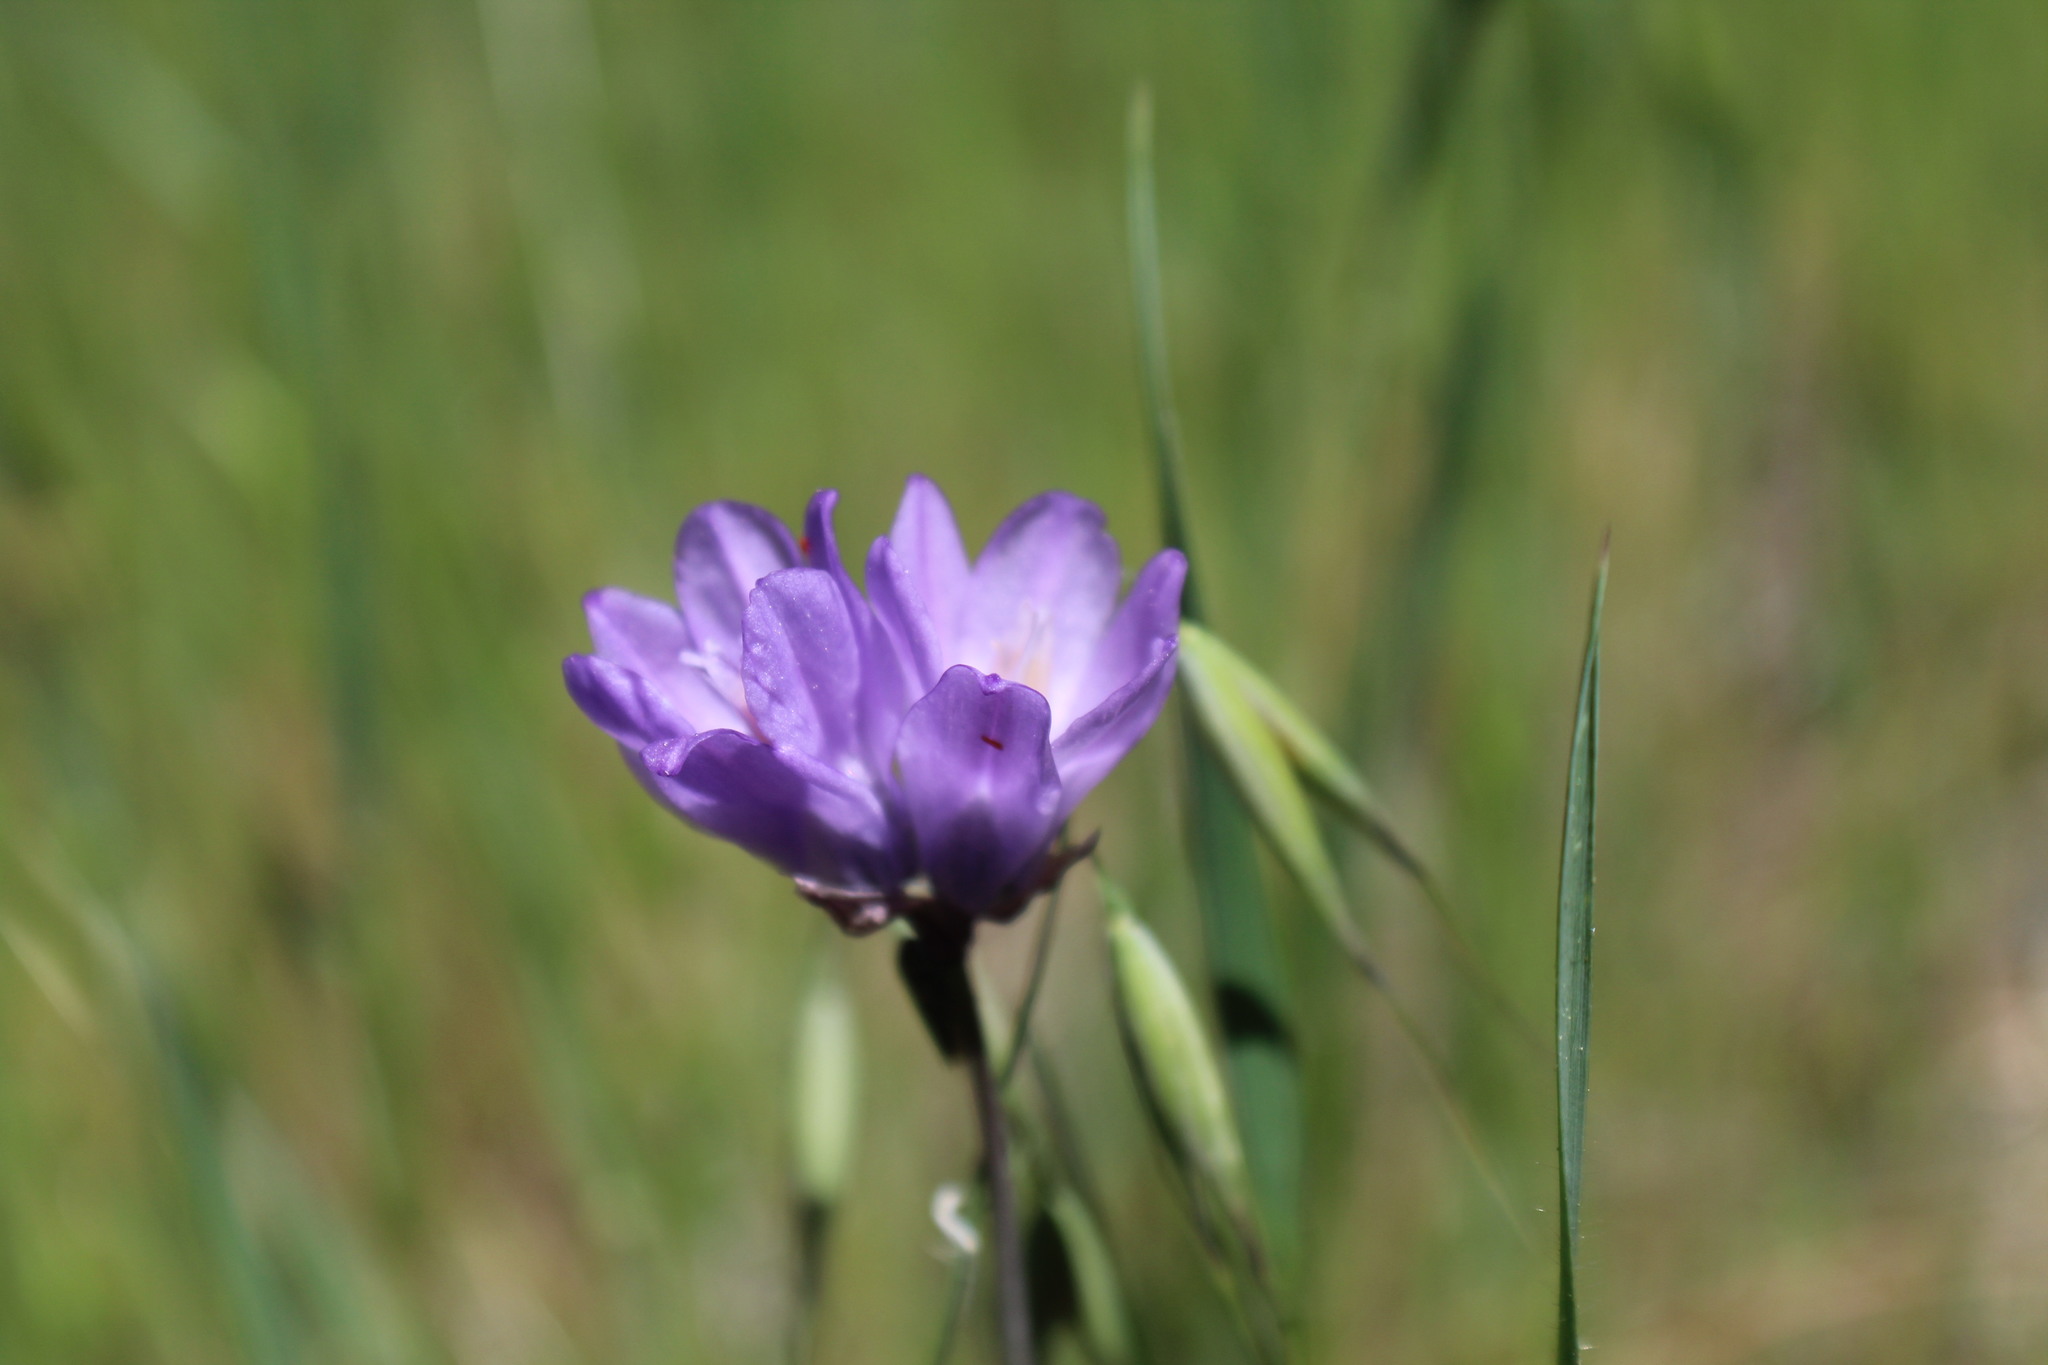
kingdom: Plantae
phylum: Tracheophyta
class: Liliopsida
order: Asparagales
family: Asparagaceae
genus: Dipterostemon
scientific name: Dipterostemon capitatus
